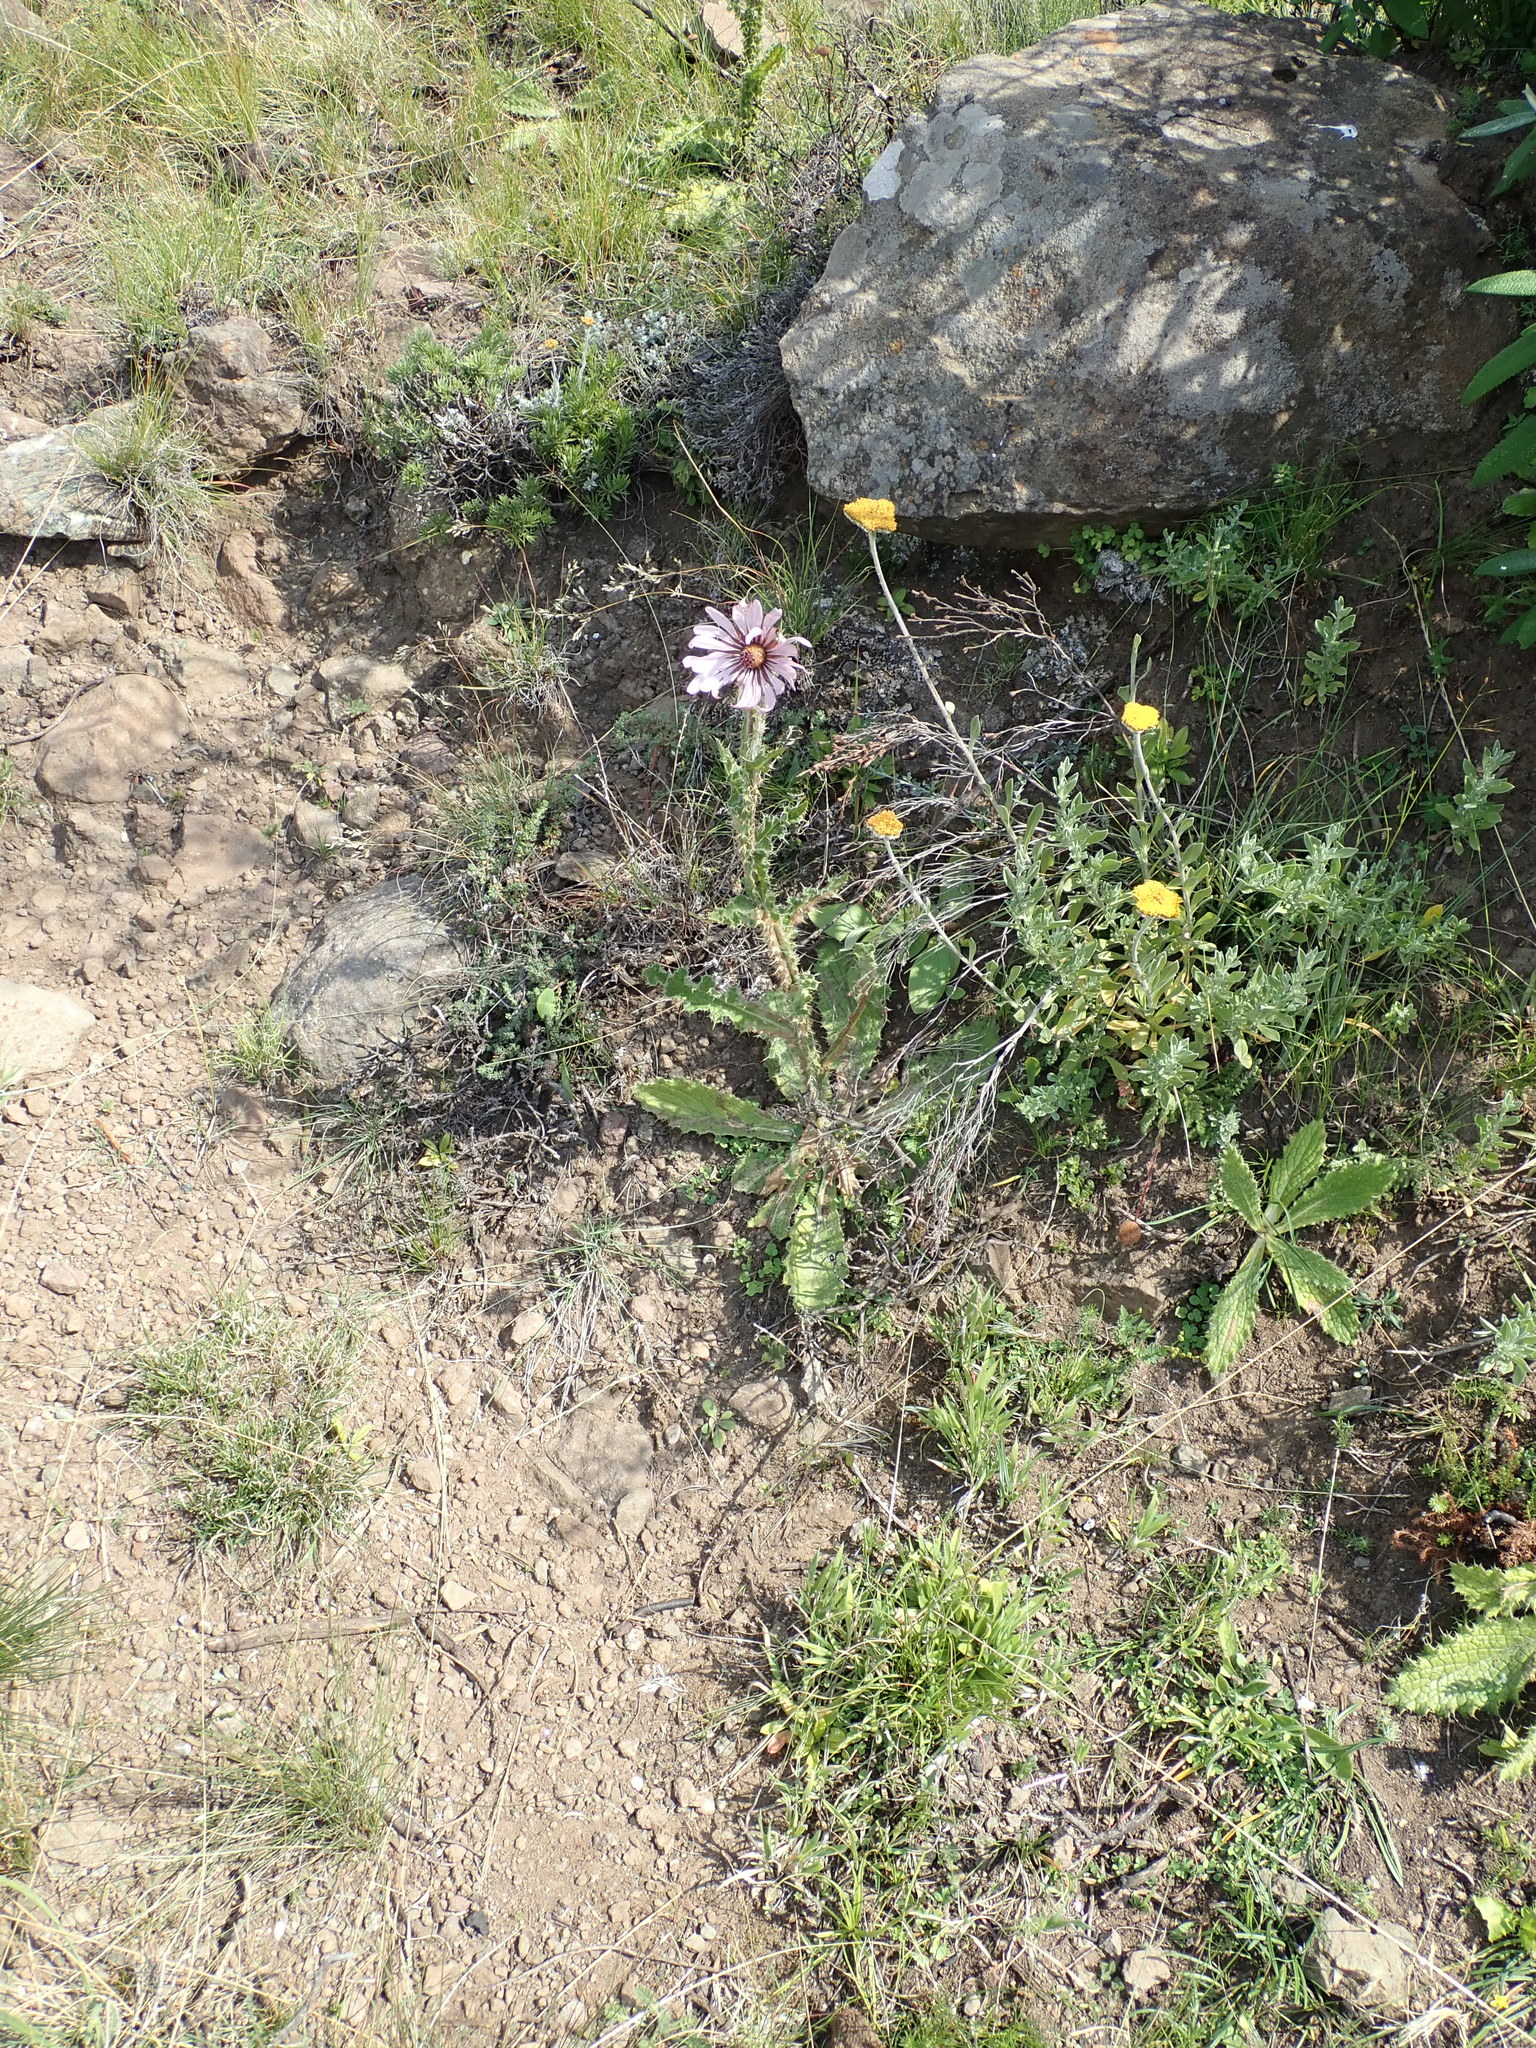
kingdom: Plantae
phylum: Tracheophyta
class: Magnoliopsida
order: Asterales
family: Asteraceae
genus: Berkheya
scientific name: Berkheya purpurea
